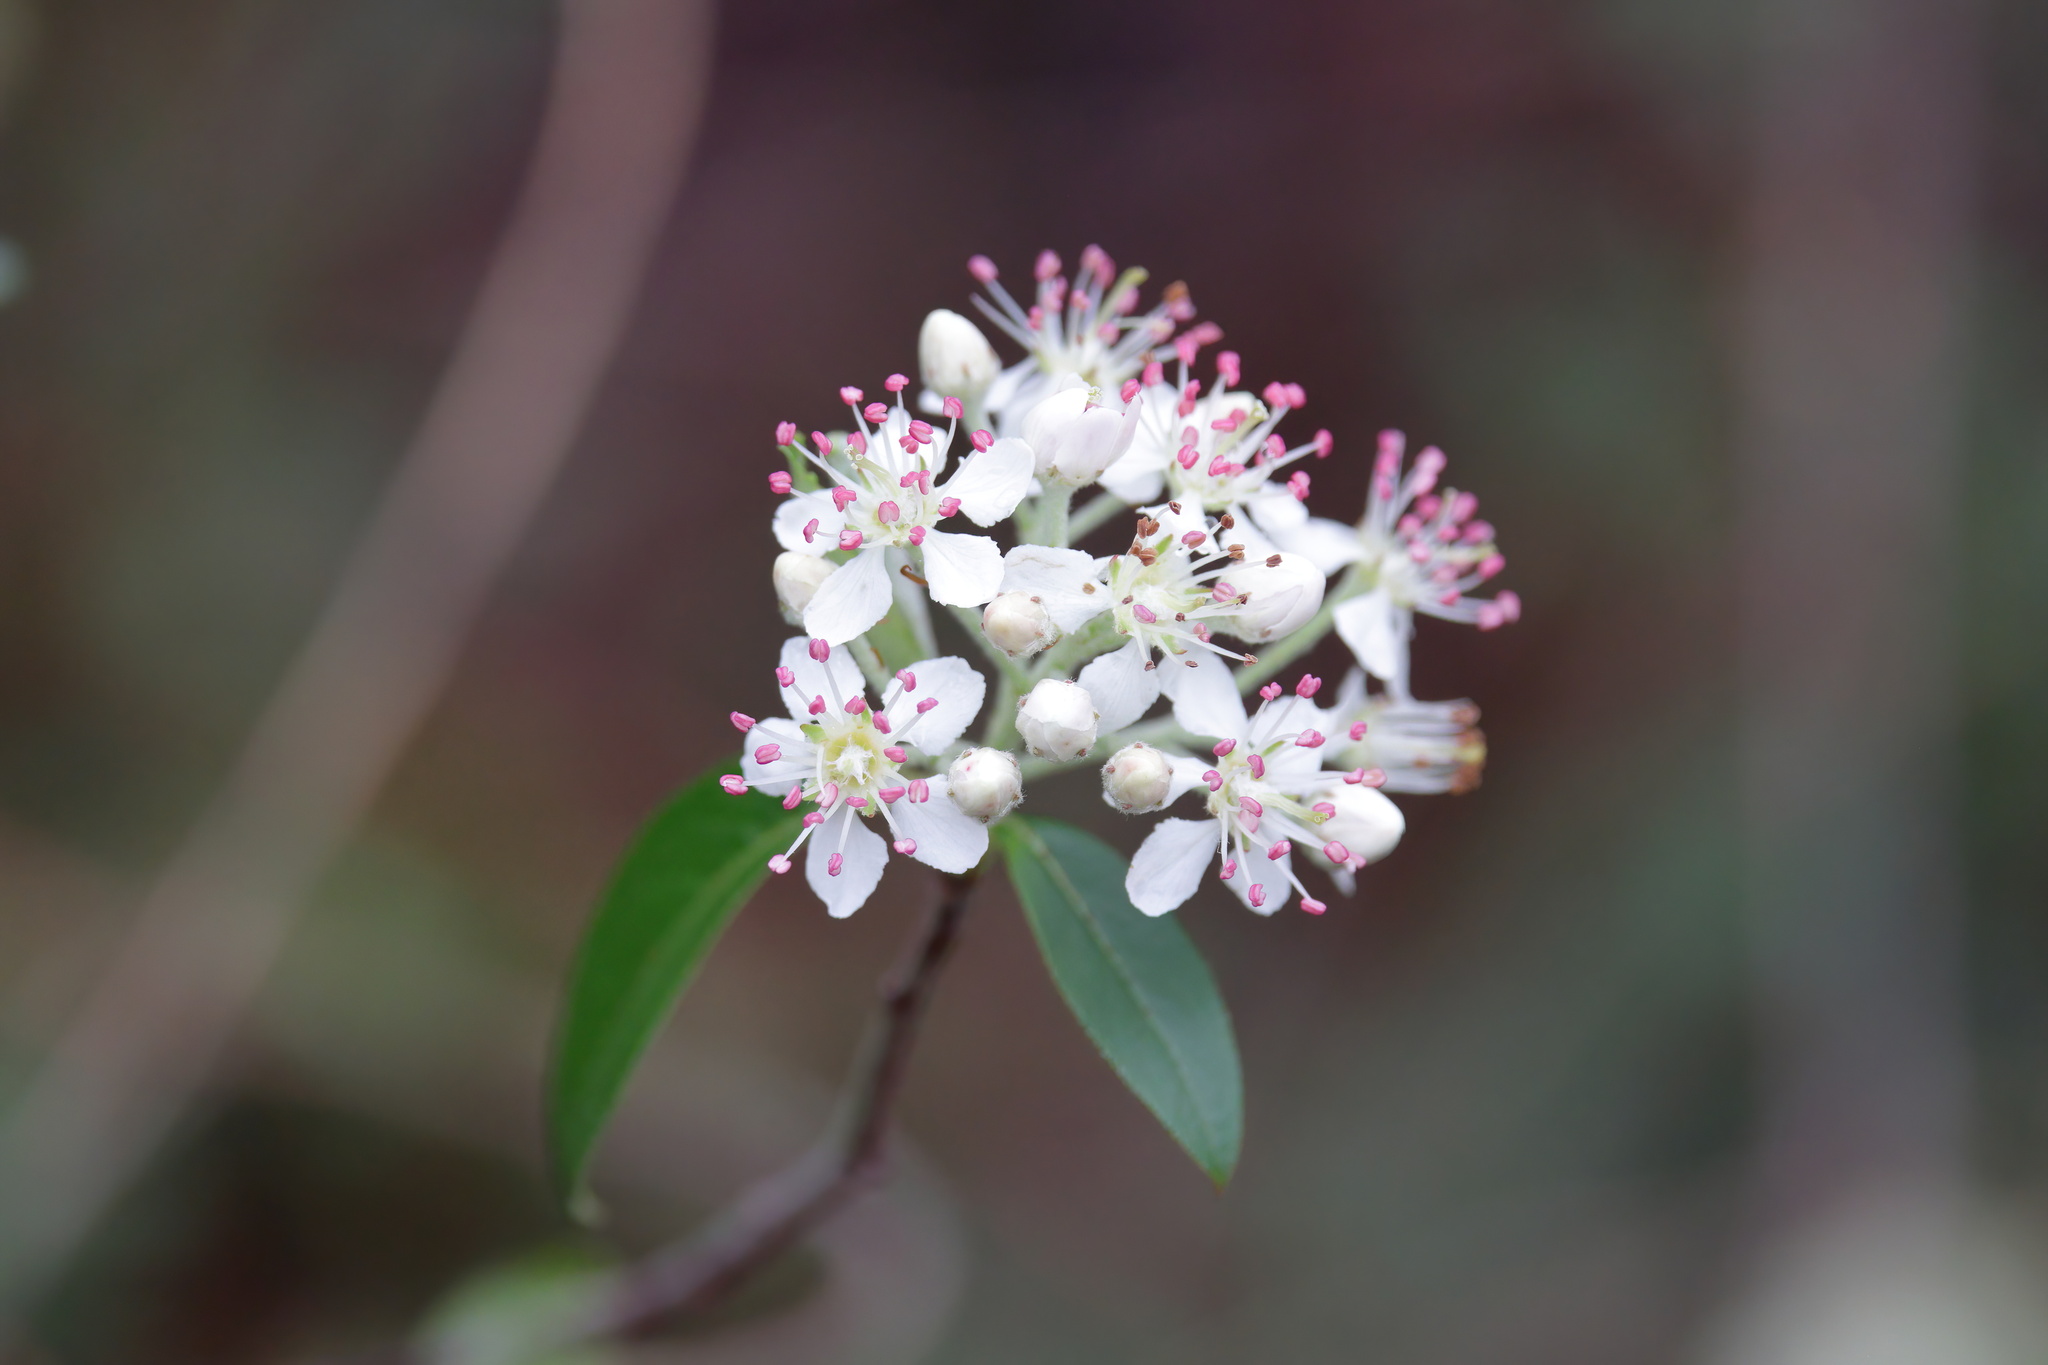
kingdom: Plantae
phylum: Tracheophyta
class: Magnoliopsida
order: Rosales
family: Rosaceae
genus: Aronia
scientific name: Aronia arbutifolia
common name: Red chokeberry
